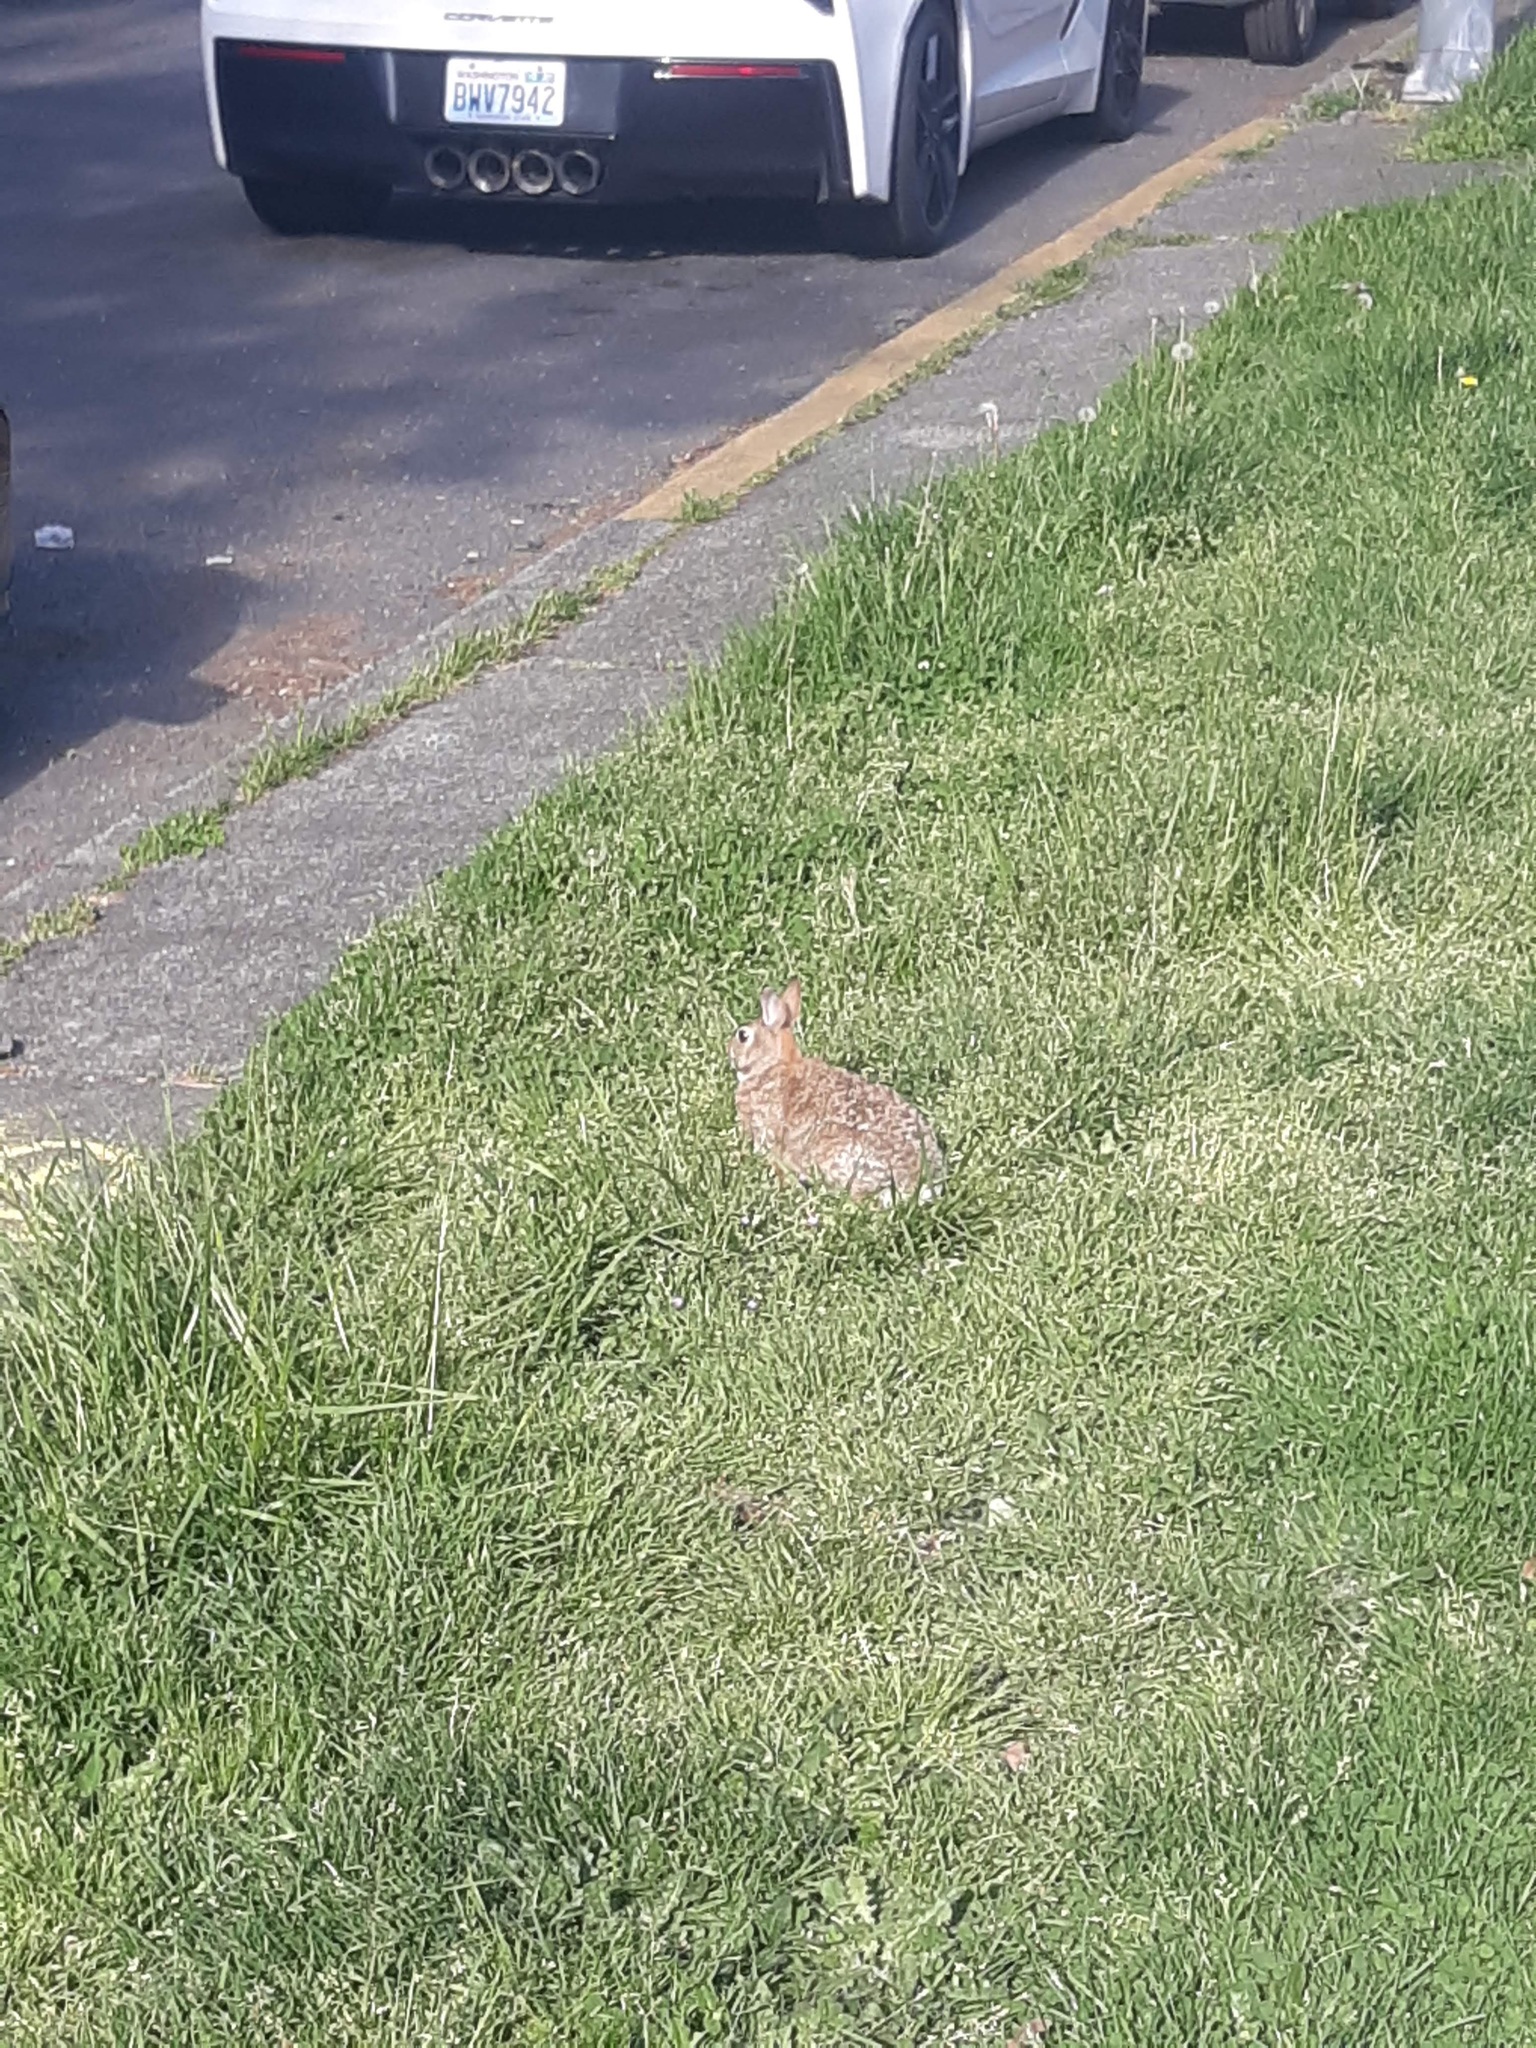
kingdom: Animalia
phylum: Chordata
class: Mammalia
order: Lagomorpha
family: Leporidae
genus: Sylvilagus
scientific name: Sylvilagus floridanus
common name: Eastern cottontail
